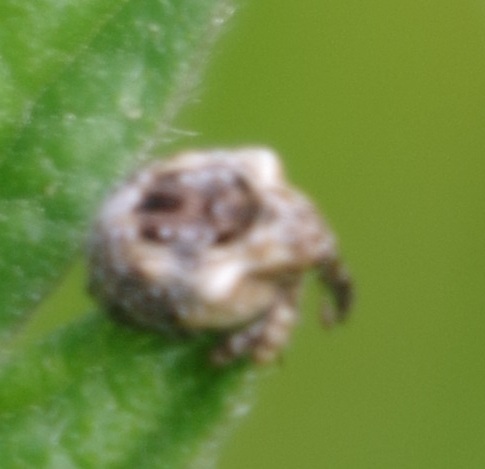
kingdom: Animalia
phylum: Arthropoda
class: Insecta
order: Coleoptera
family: Curculionidae
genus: Cionus
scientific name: Cionus alauda
